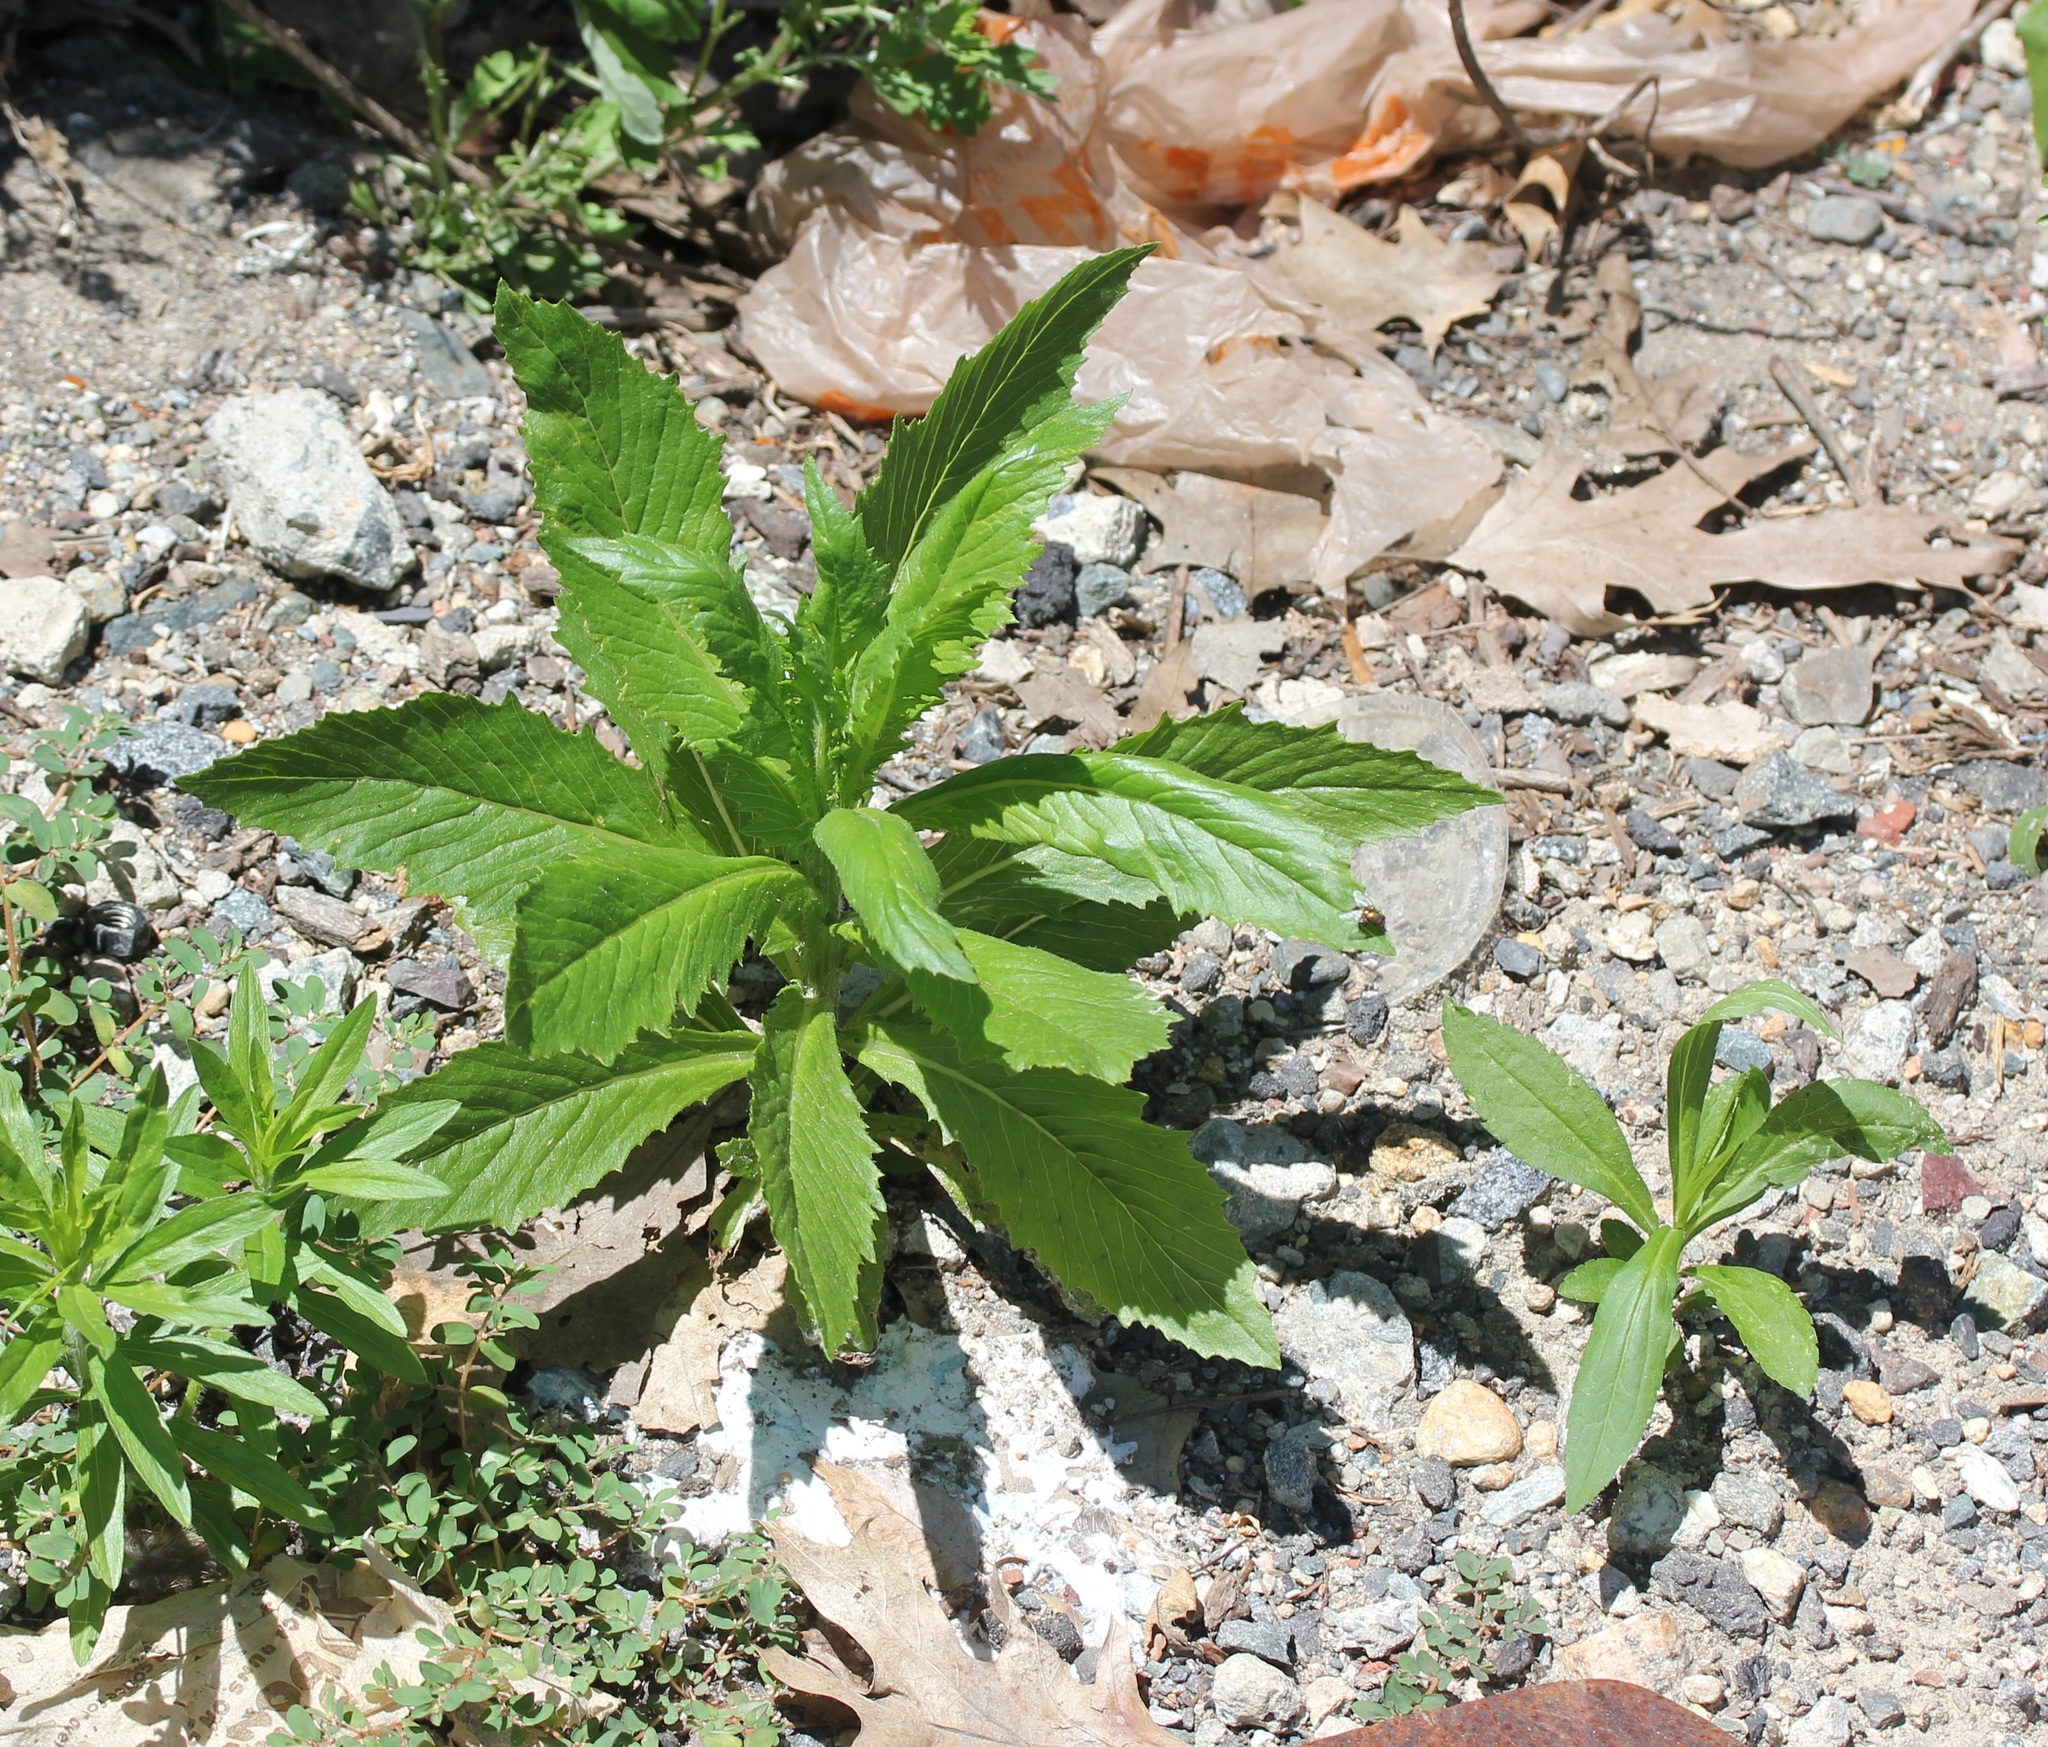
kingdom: Plantae
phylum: Tracheophyta
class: Magnoliopsida
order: Asterales
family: Asteraceae
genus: Erechtites
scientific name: Erechtites hieraciifolius
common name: American burnweed
